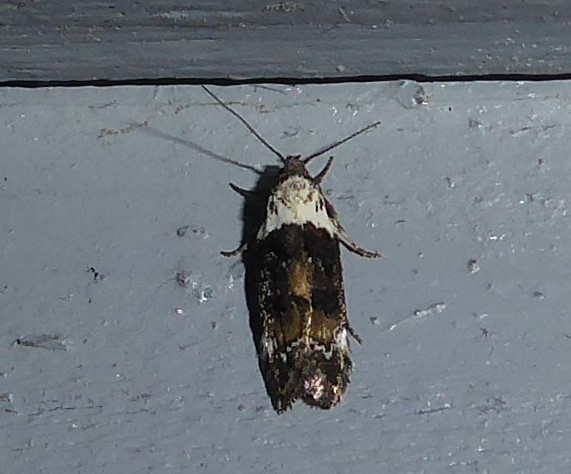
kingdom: Animalia
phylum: Arthropoda
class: Insecta
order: Lepidoptera
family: Oecophoridae
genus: Trachypepla
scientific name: Trachypepla euryleucota
